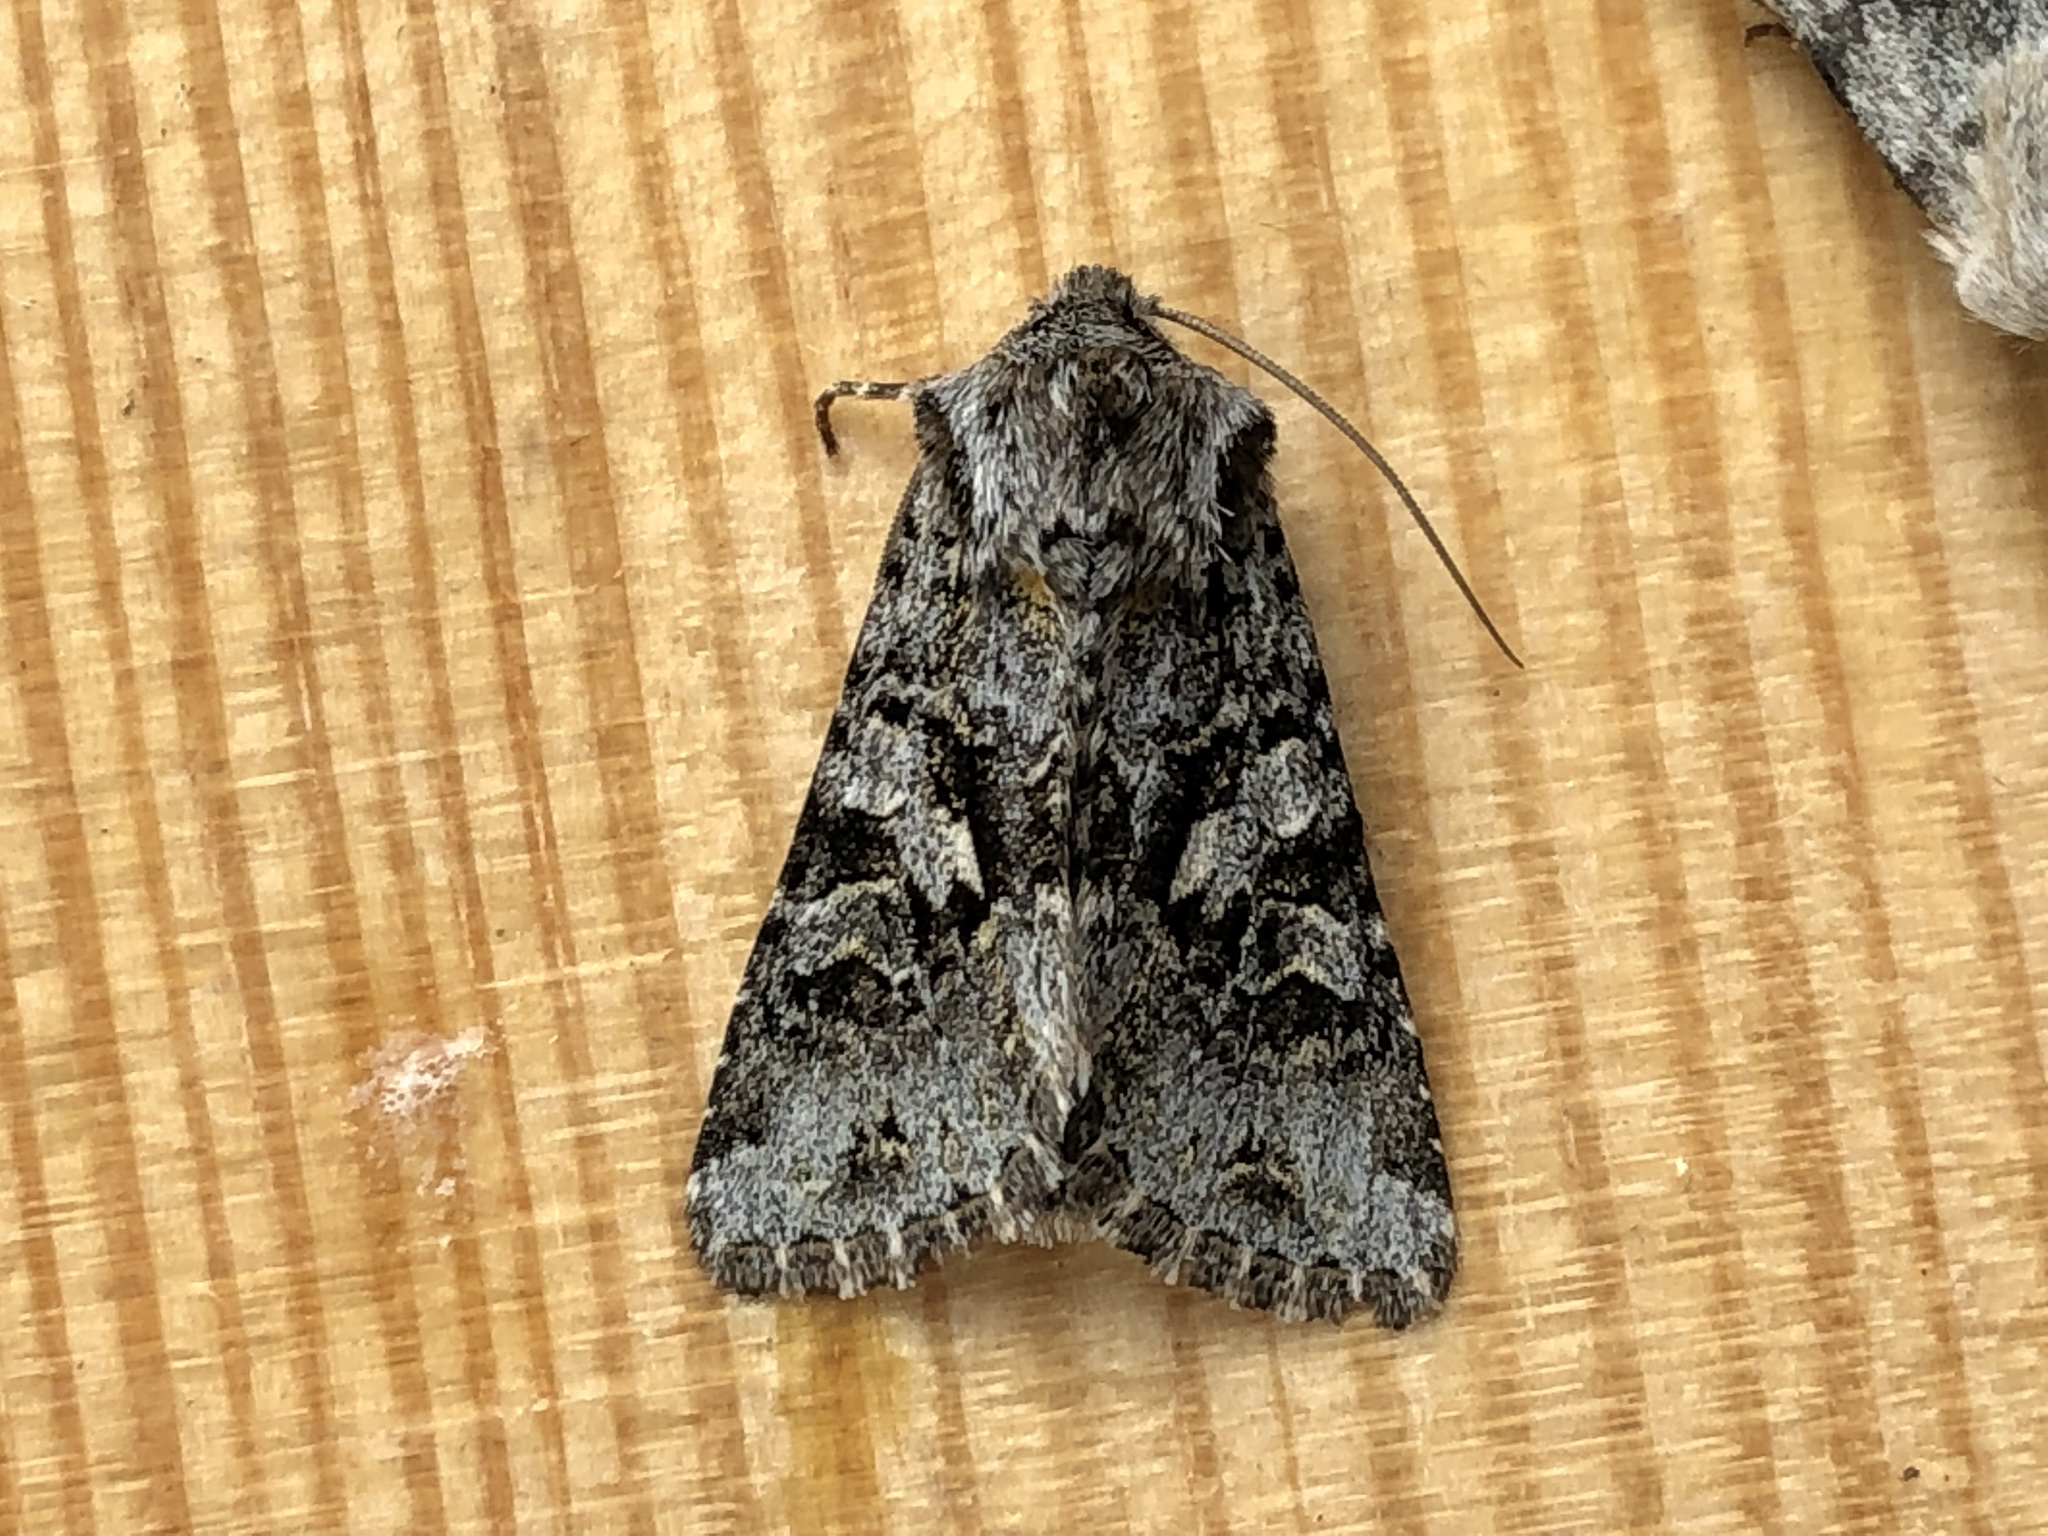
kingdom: Animalia
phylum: Arthropoda
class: Insecta
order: Lepidoptera
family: Noctuidae
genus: Hada
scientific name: Hada plebeja
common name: Shears
